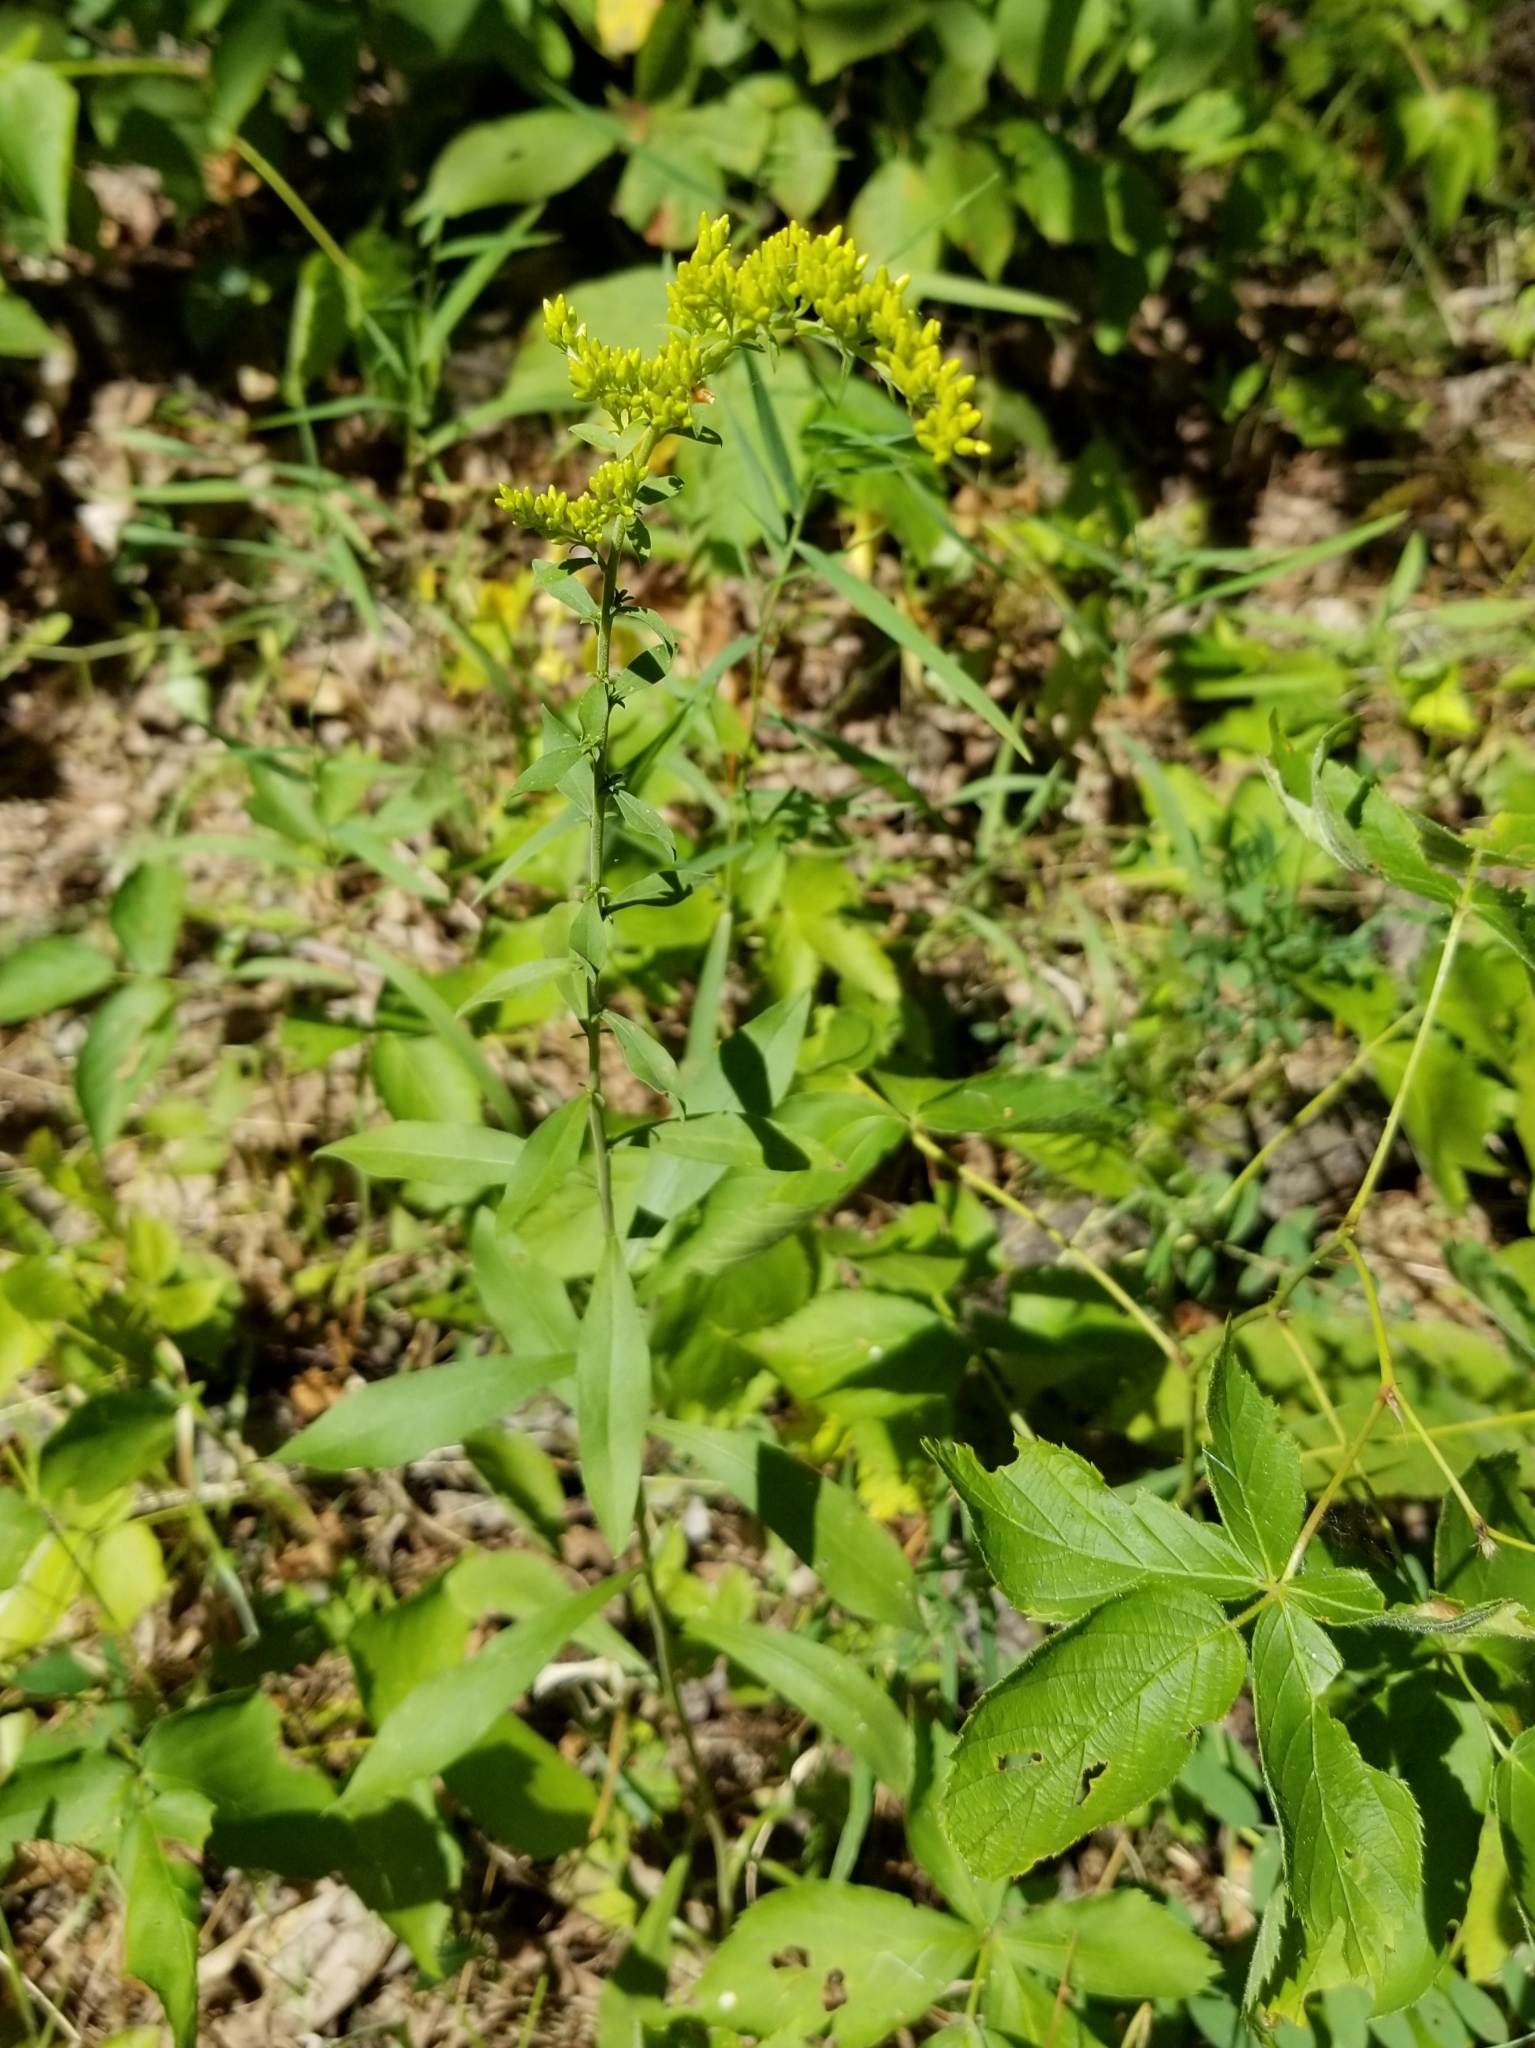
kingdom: Plantae
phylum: Tracheophyta
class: Magnoliopsida
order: Asterales
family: Asteraceae
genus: Solidago
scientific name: Solidago nemoralis
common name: Grey goldenrod
